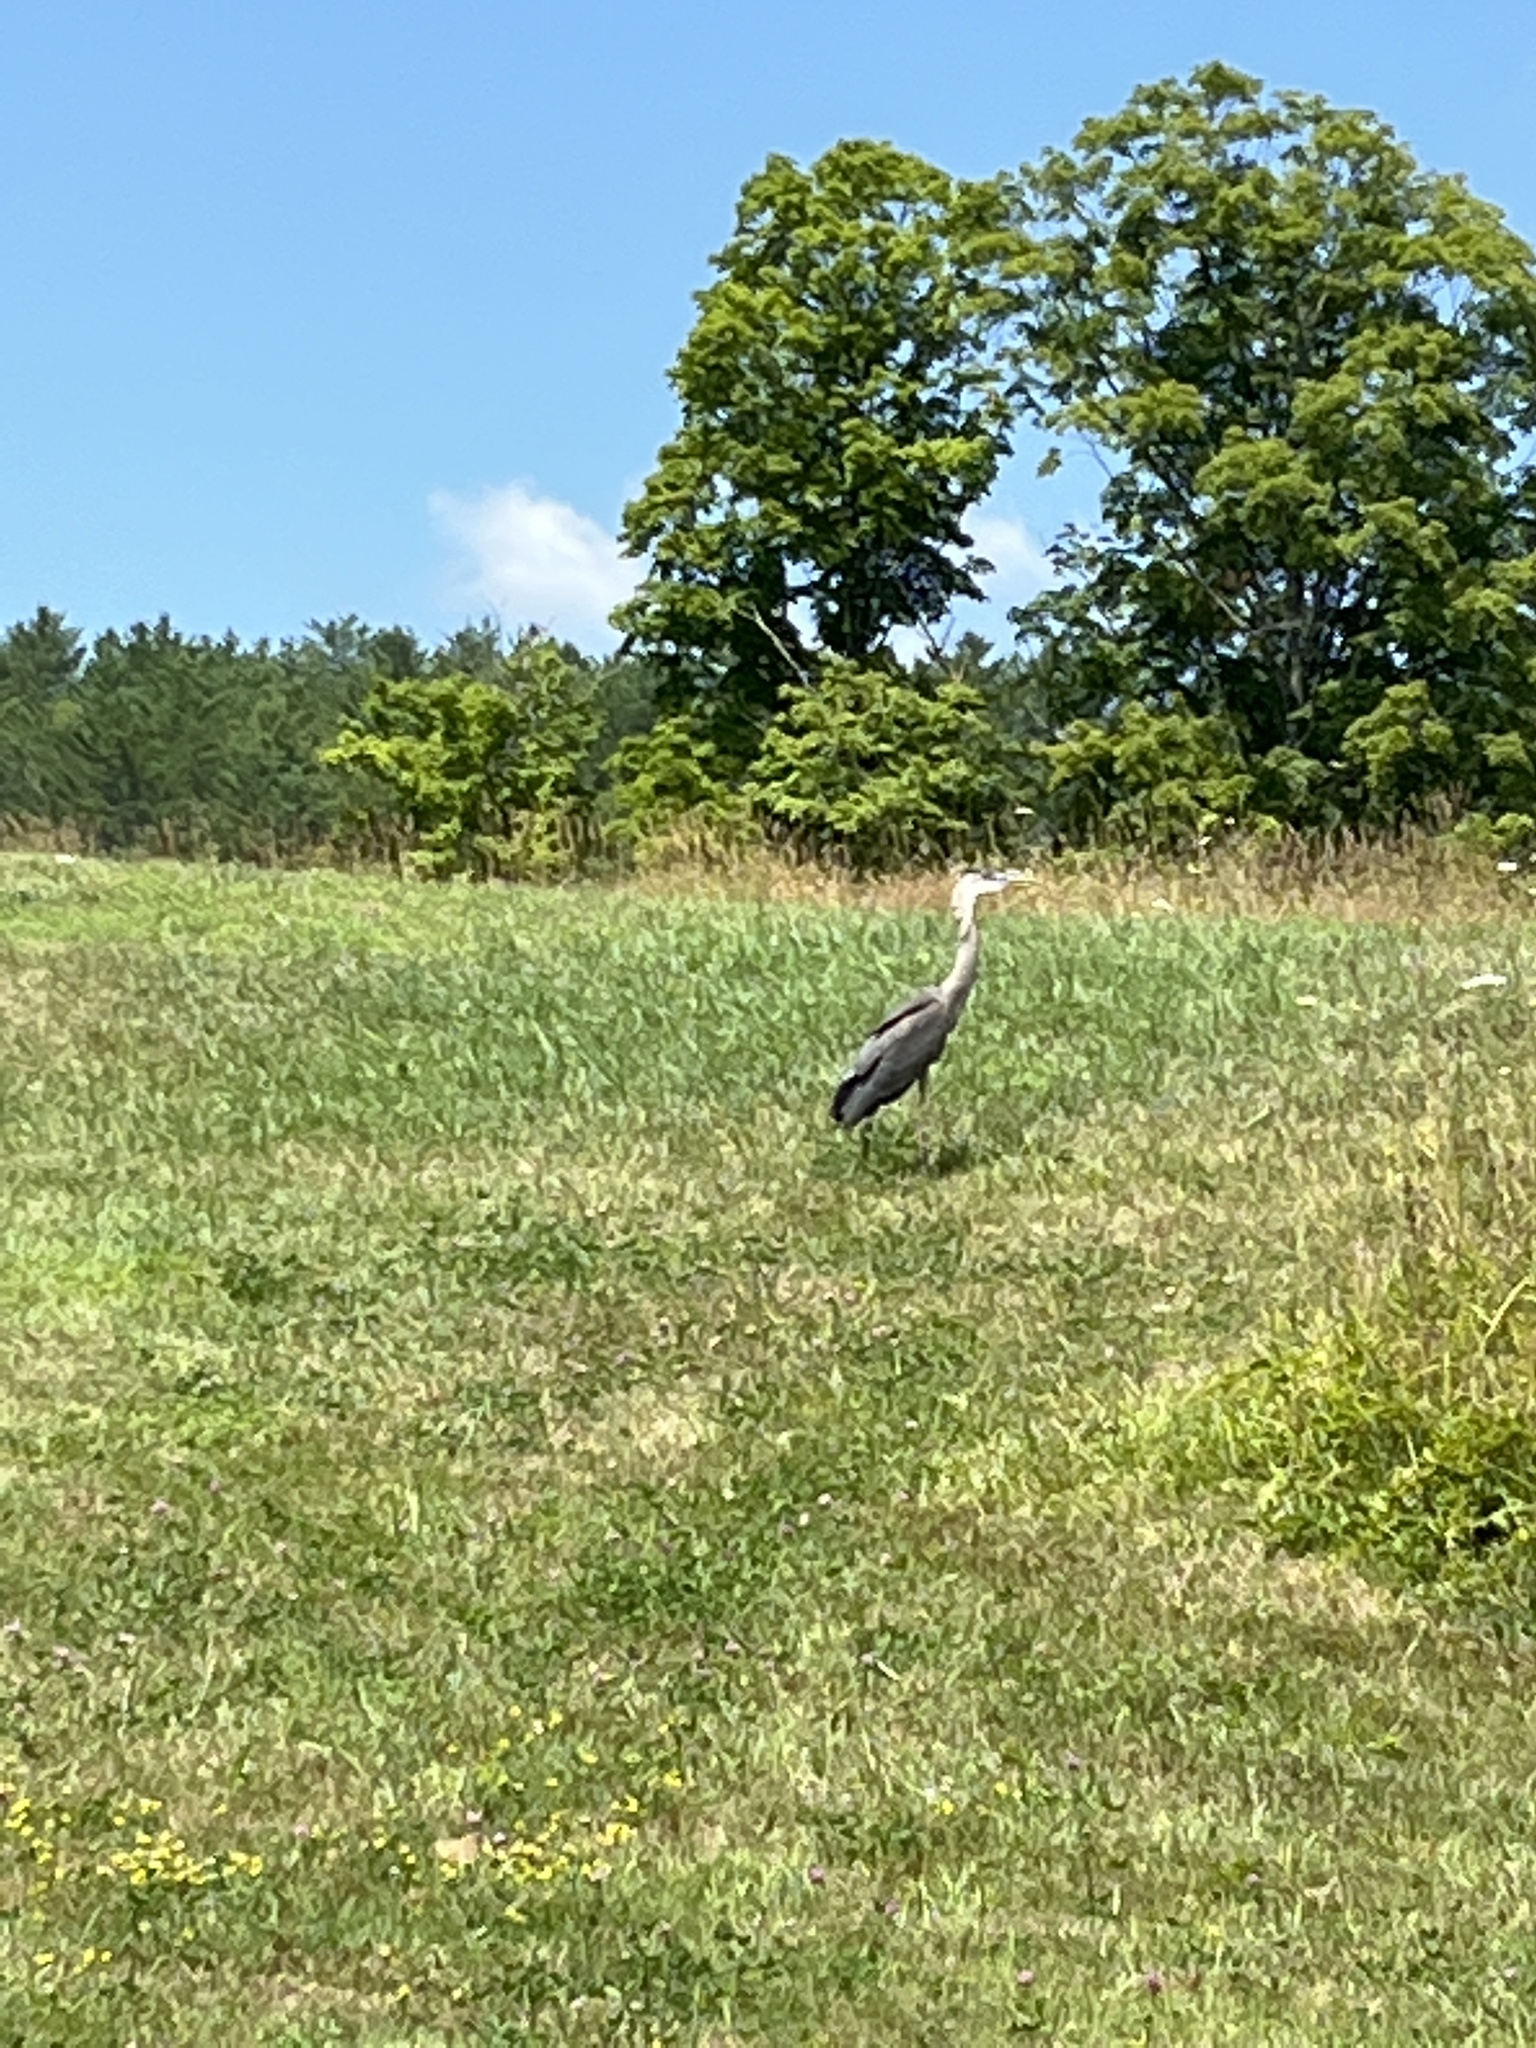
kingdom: Animalia
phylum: Chordata
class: Aves
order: Pelecaniformes
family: Ardeidae
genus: Ardea
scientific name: Ardea herodias
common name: Great blue heron
